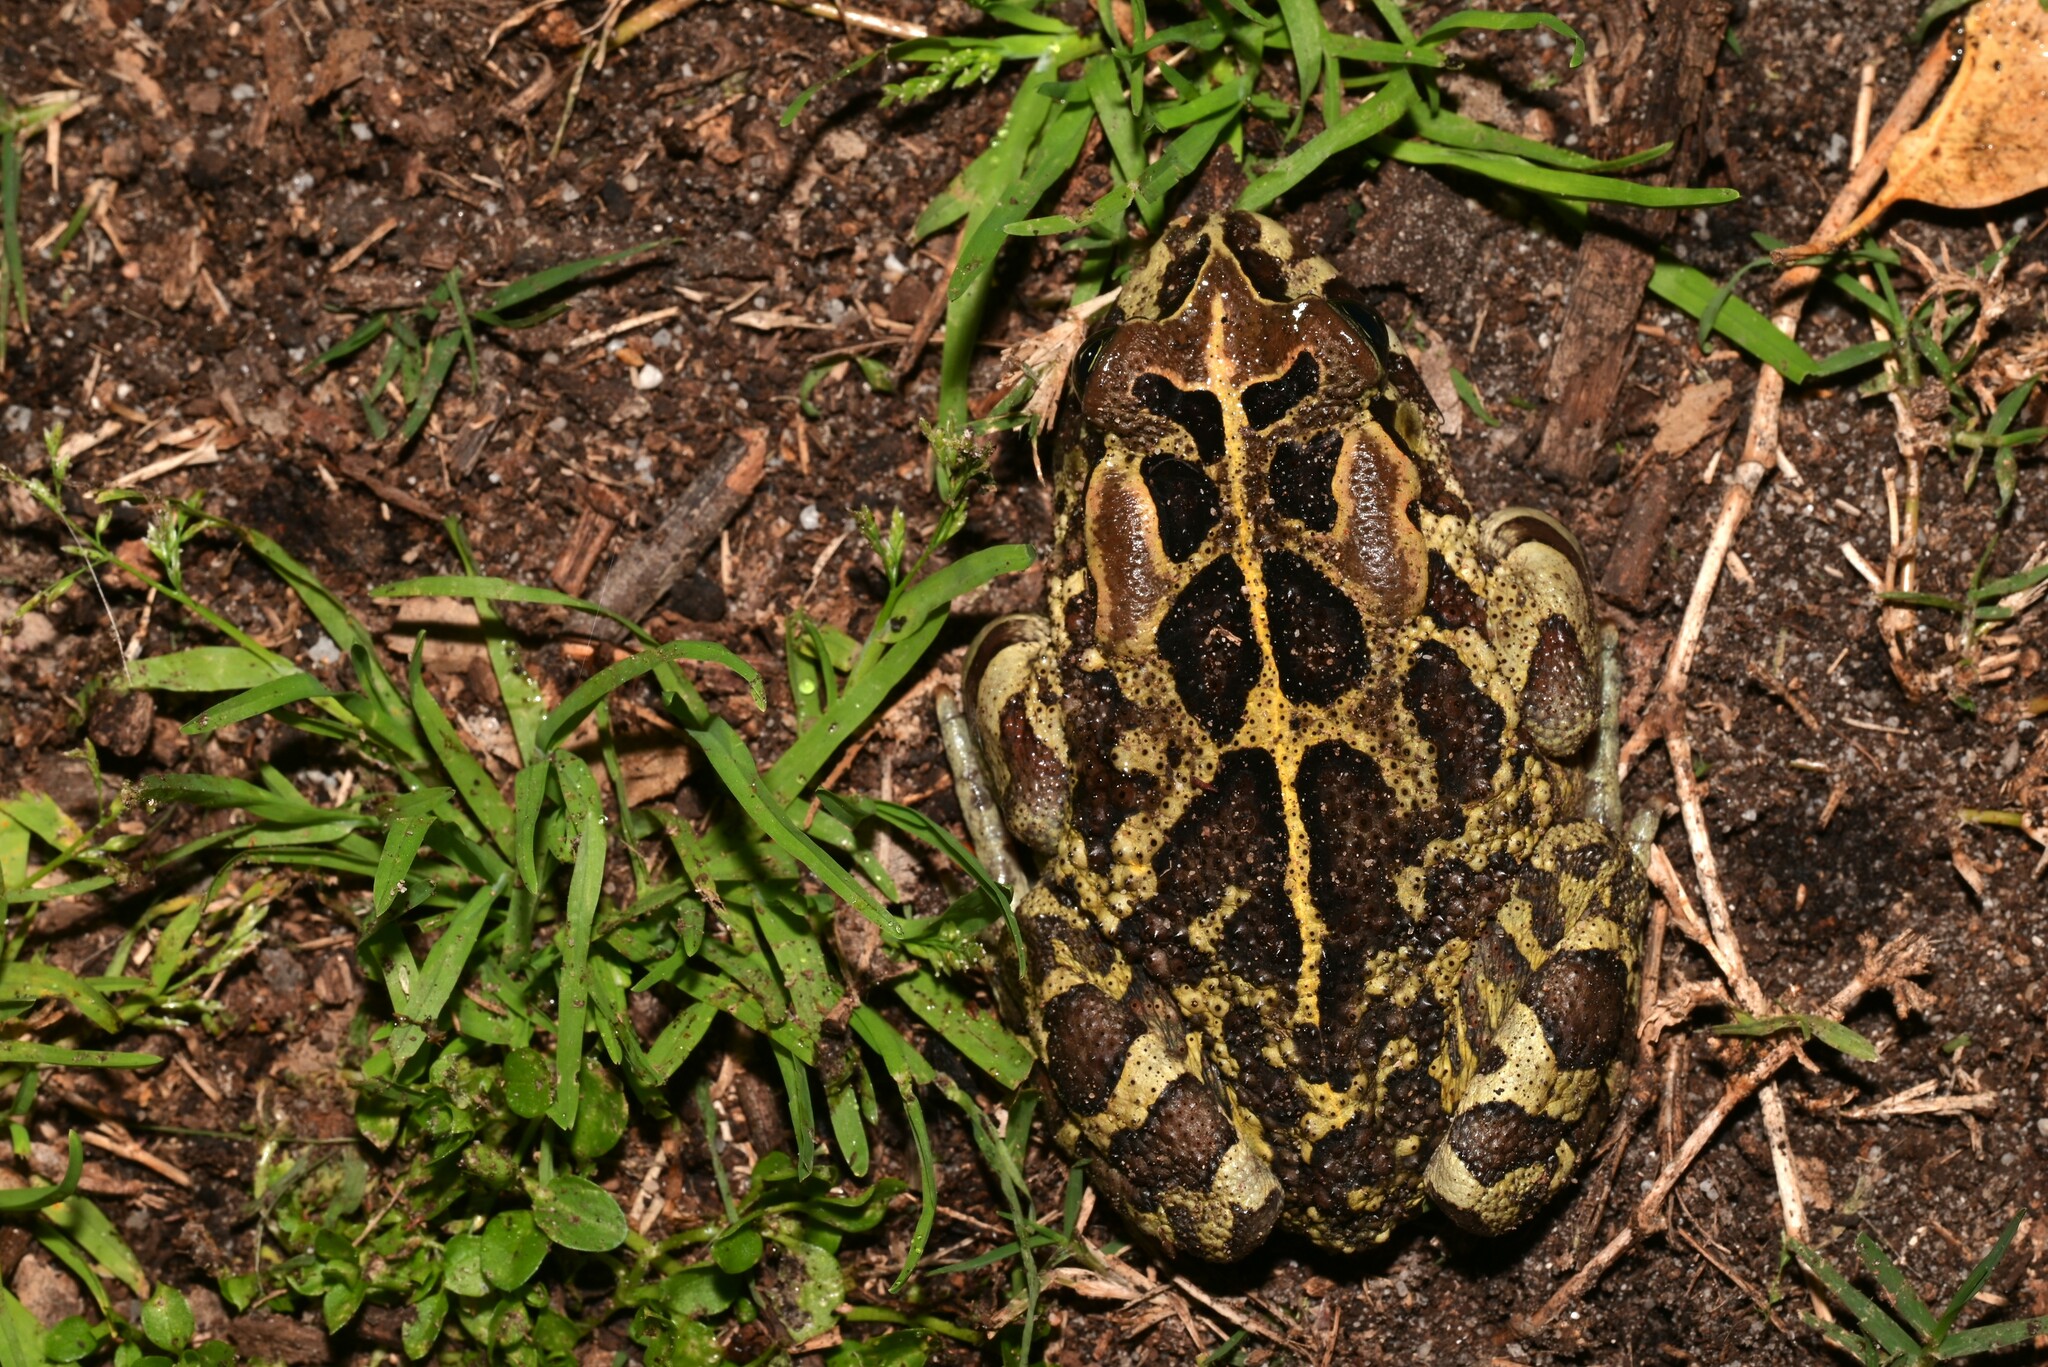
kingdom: Animalia
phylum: Chordata
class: Amphibia
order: Anura
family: Bufonidae
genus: Sclerophrys
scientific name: Sclerophrys pantherina
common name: Panther toad
